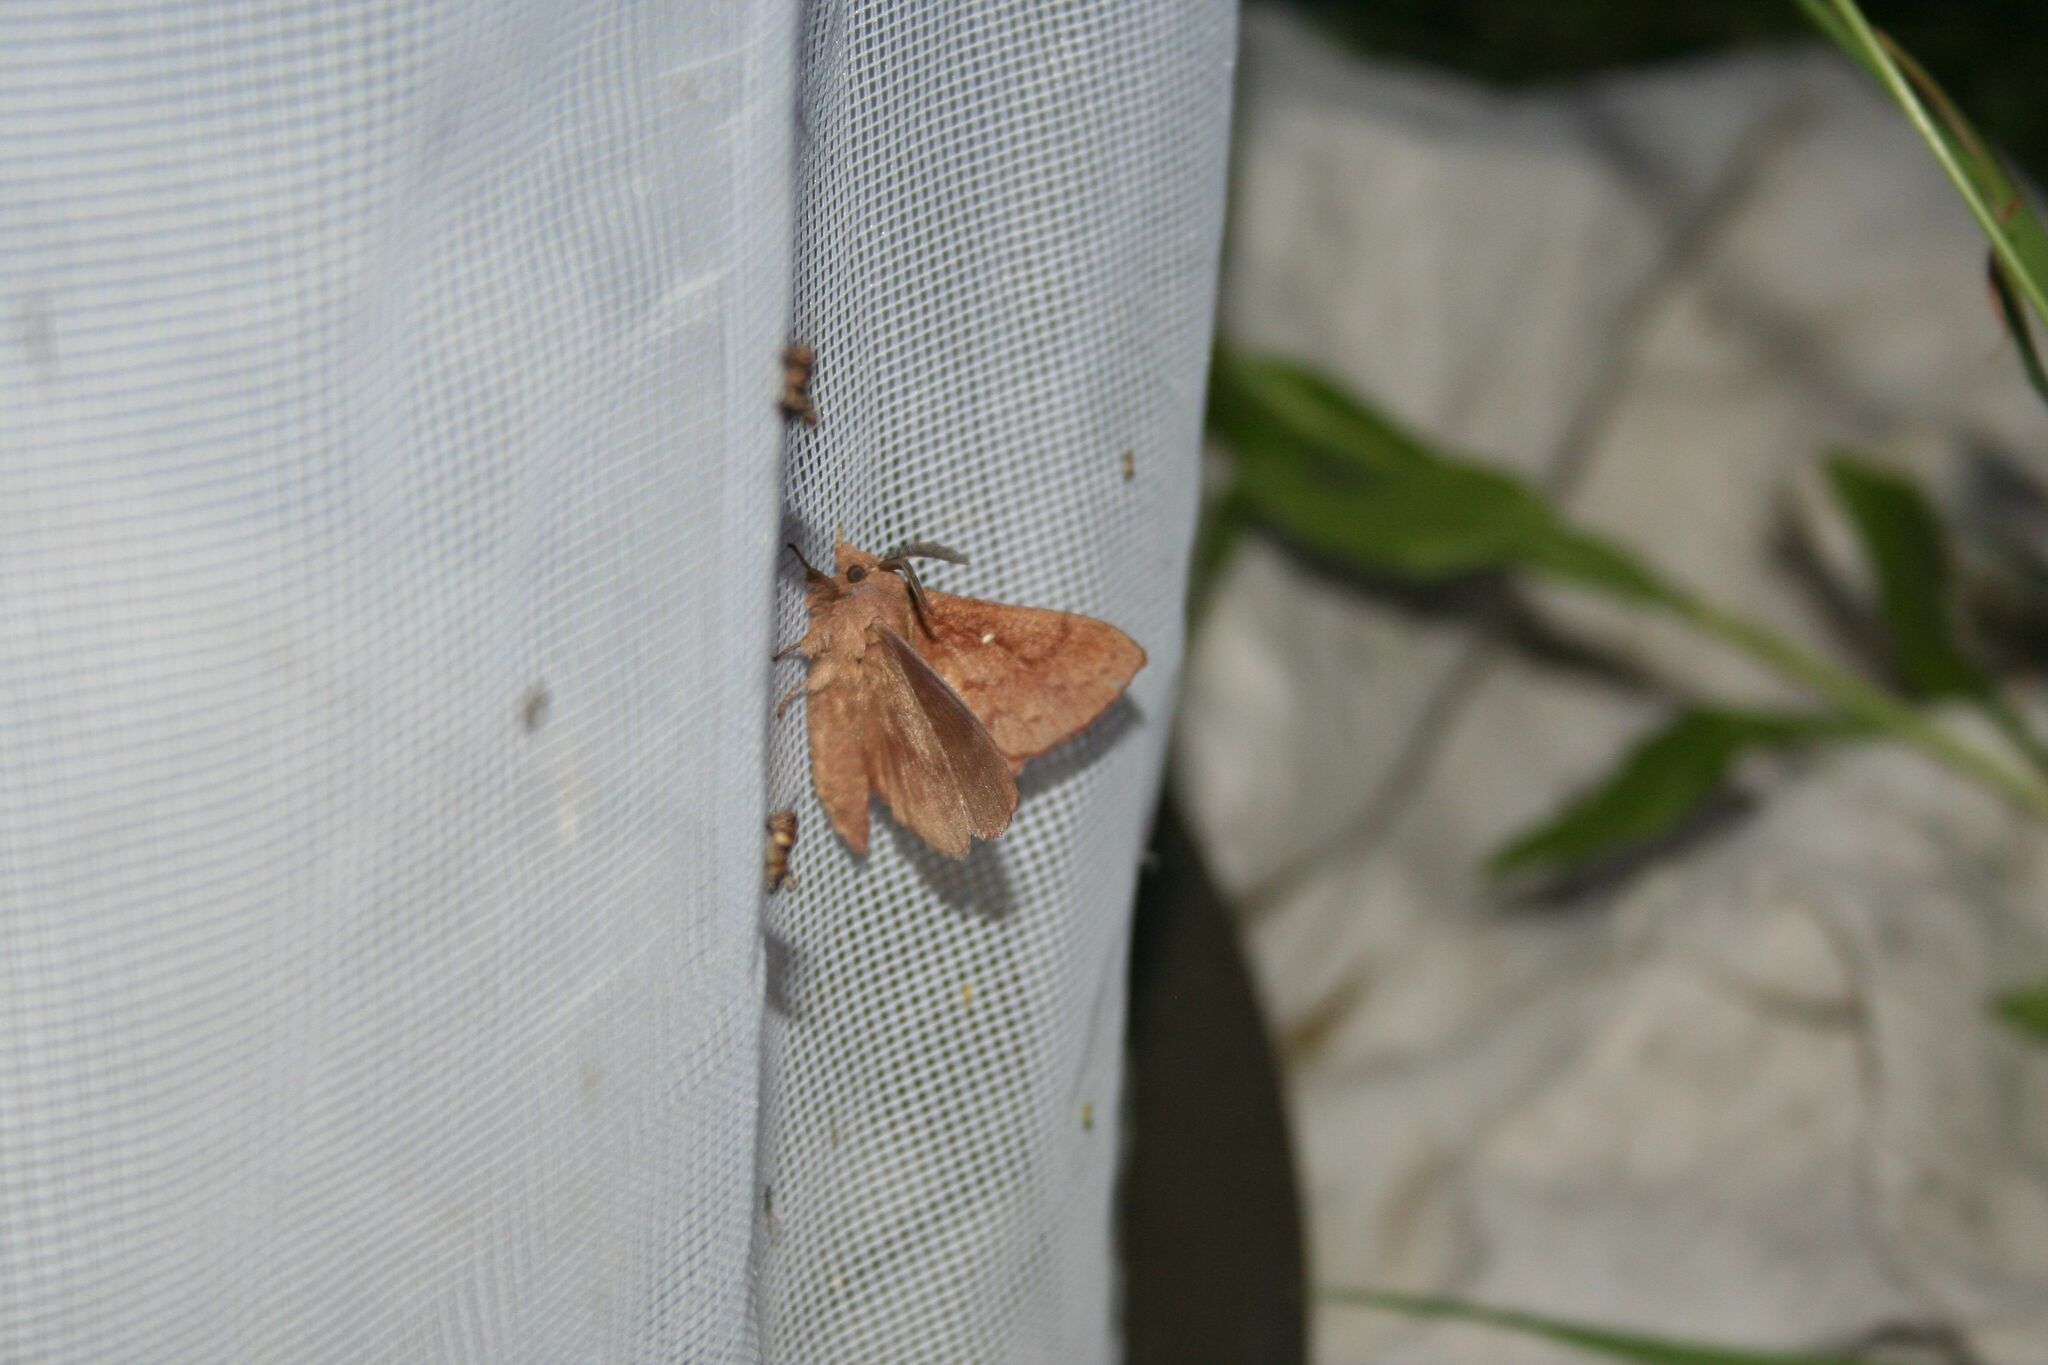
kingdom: Animalia
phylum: Arthropoda
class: Insecta
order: Lepidoptera
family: Lasiocampidae
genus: Dendrolimus
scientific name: Dendrolimus pini
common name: Pine-tree lappet
